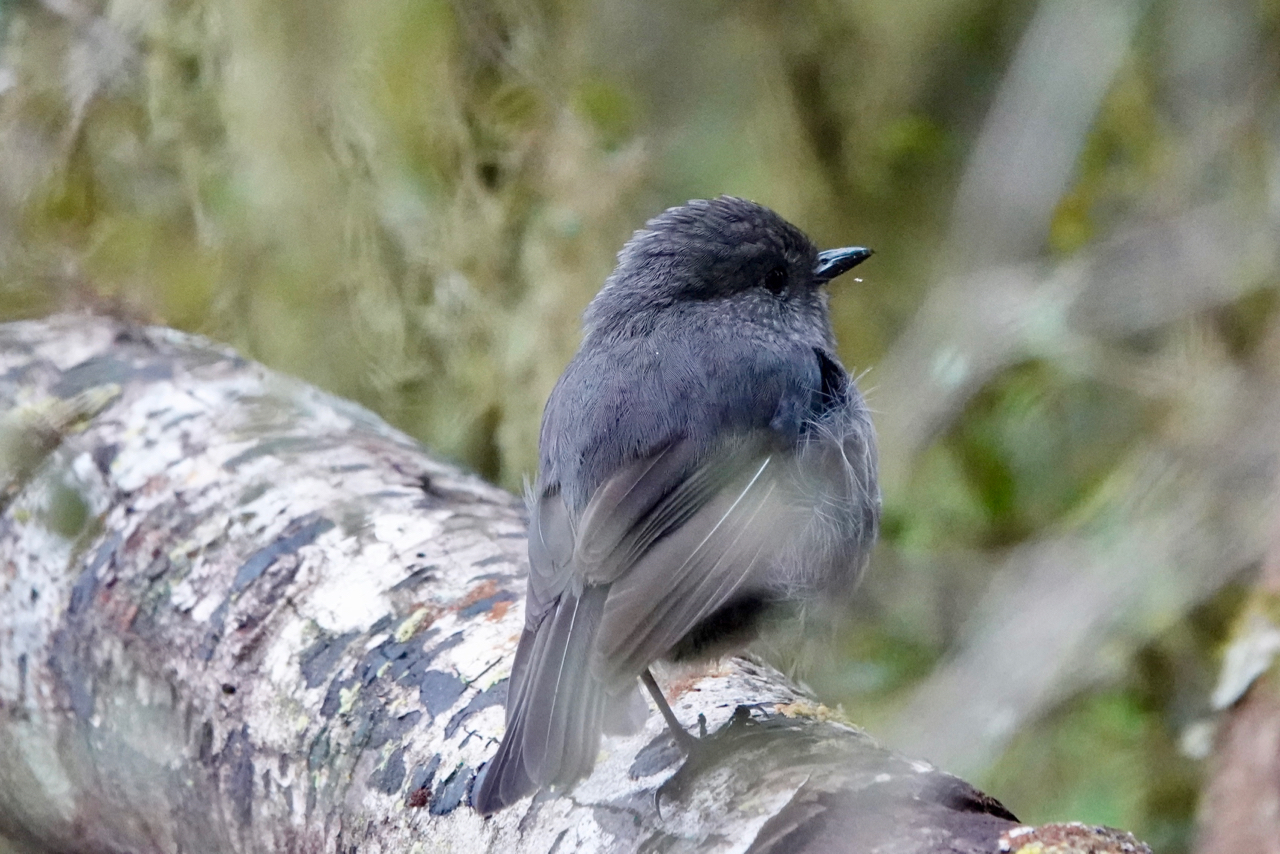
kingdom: Animalia
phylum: Chordata
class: Aves
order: Passeriformes
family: Petroicidae
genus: Petroica
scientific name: Petroica australis
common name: New zealand robin
